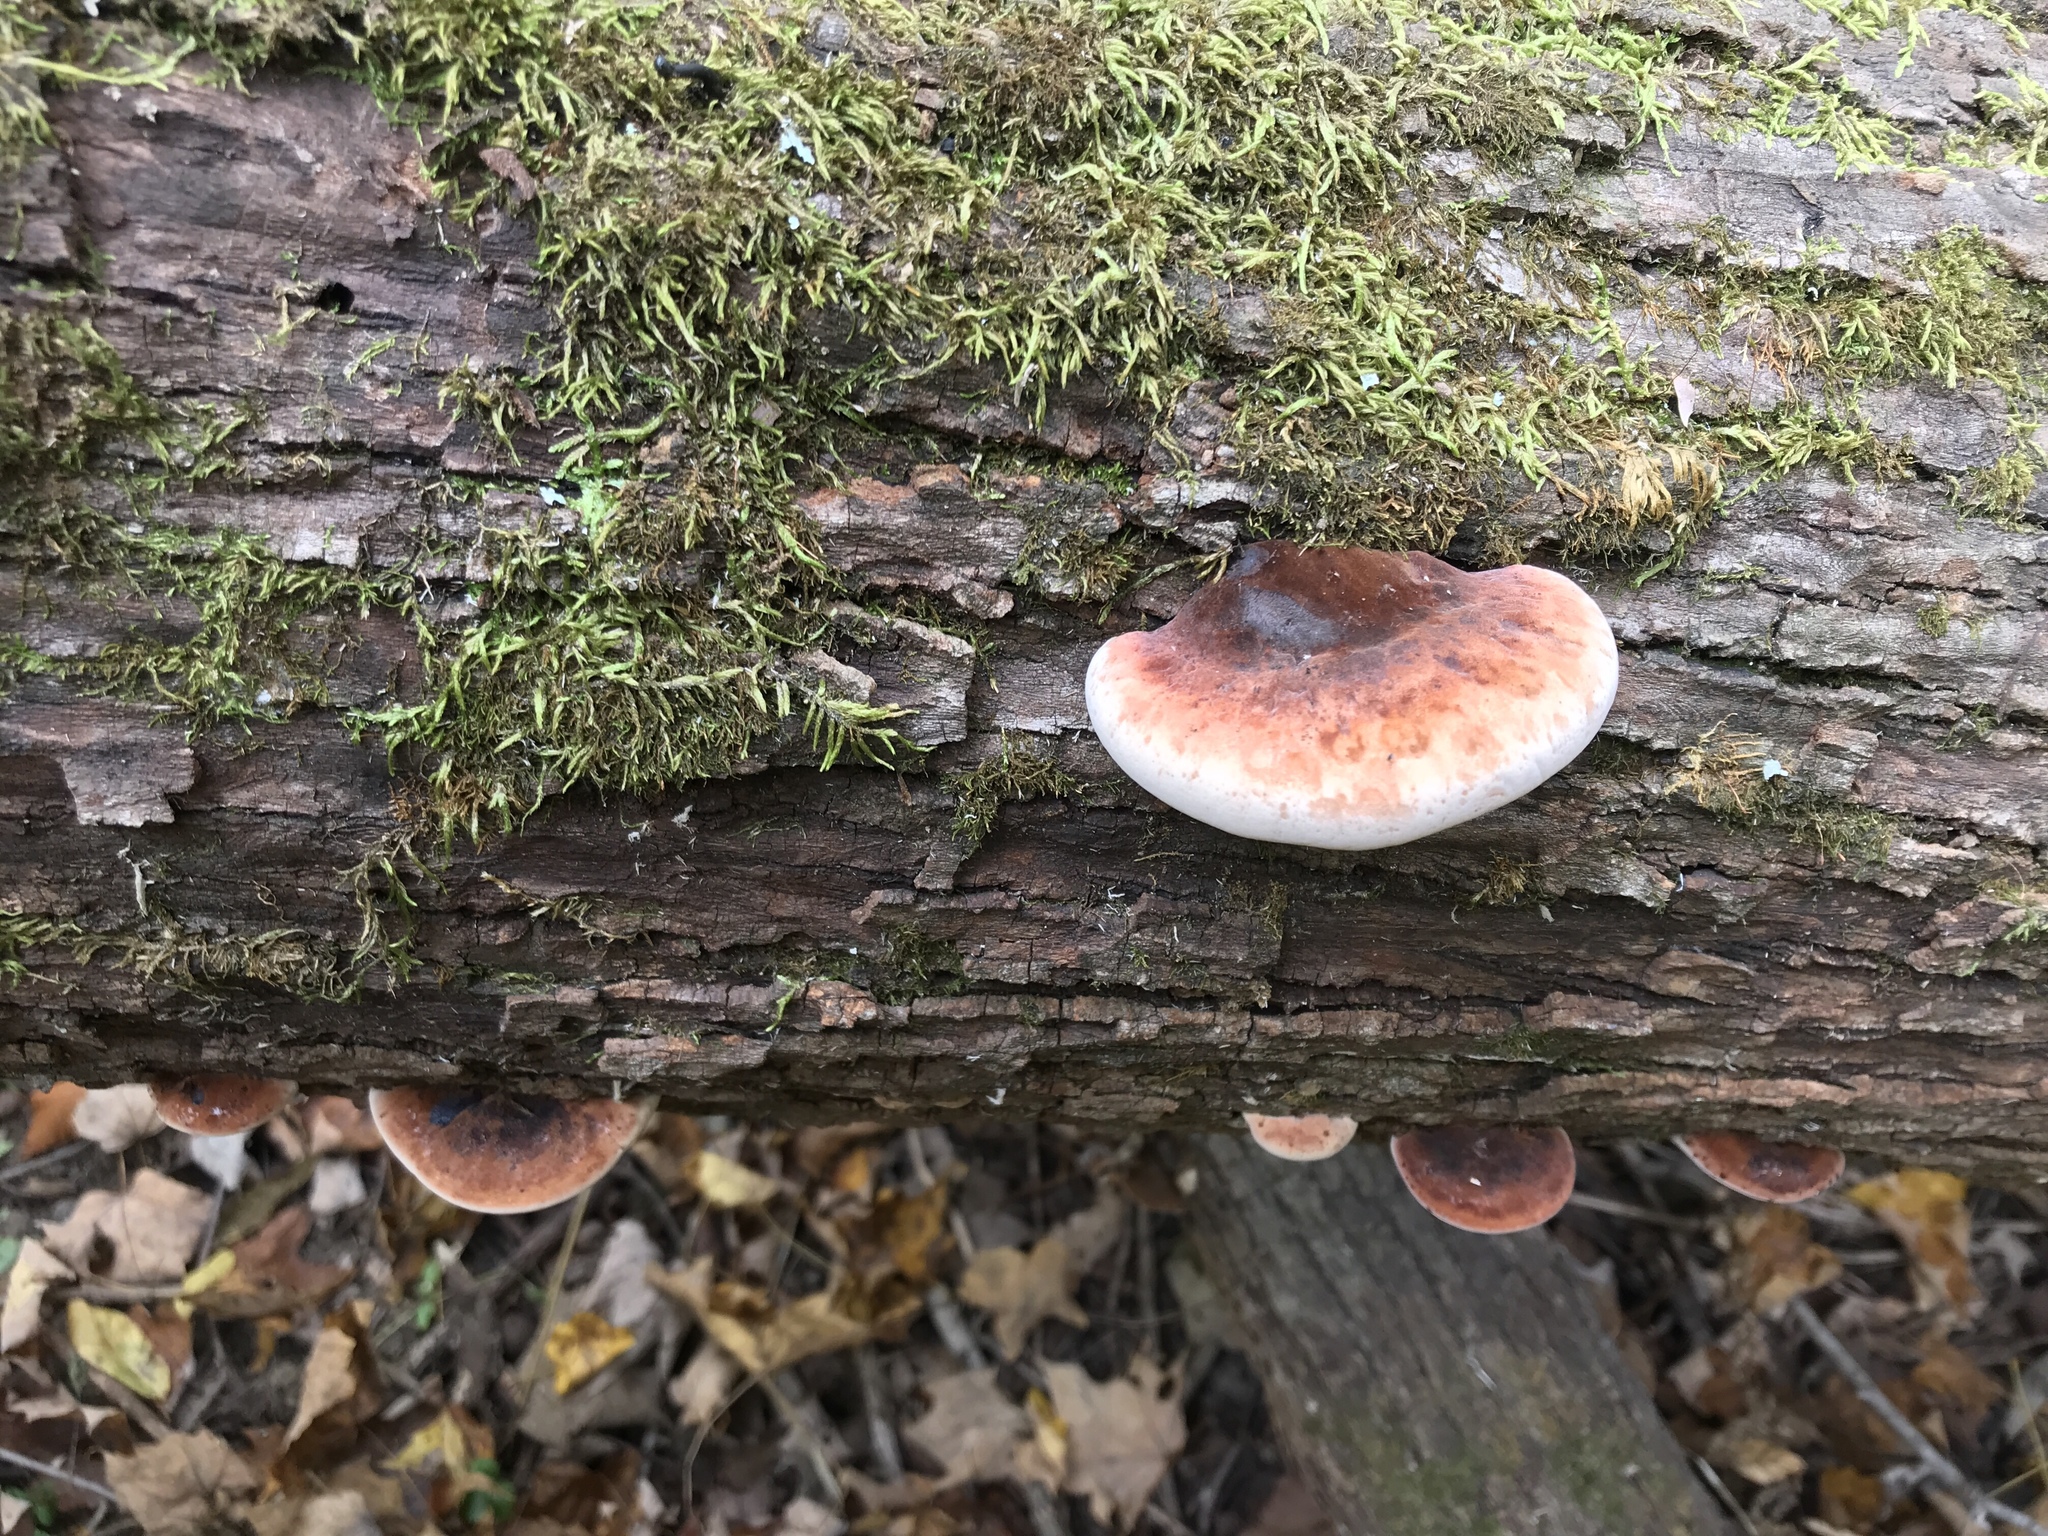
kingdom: Fungi
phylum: Basidiomycota
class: Agaricomycetes
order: Polyporales
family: Ischnodermataceae
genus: Ischnoderma
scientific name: Ischnoderma resinosum
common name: Resinous polypore
